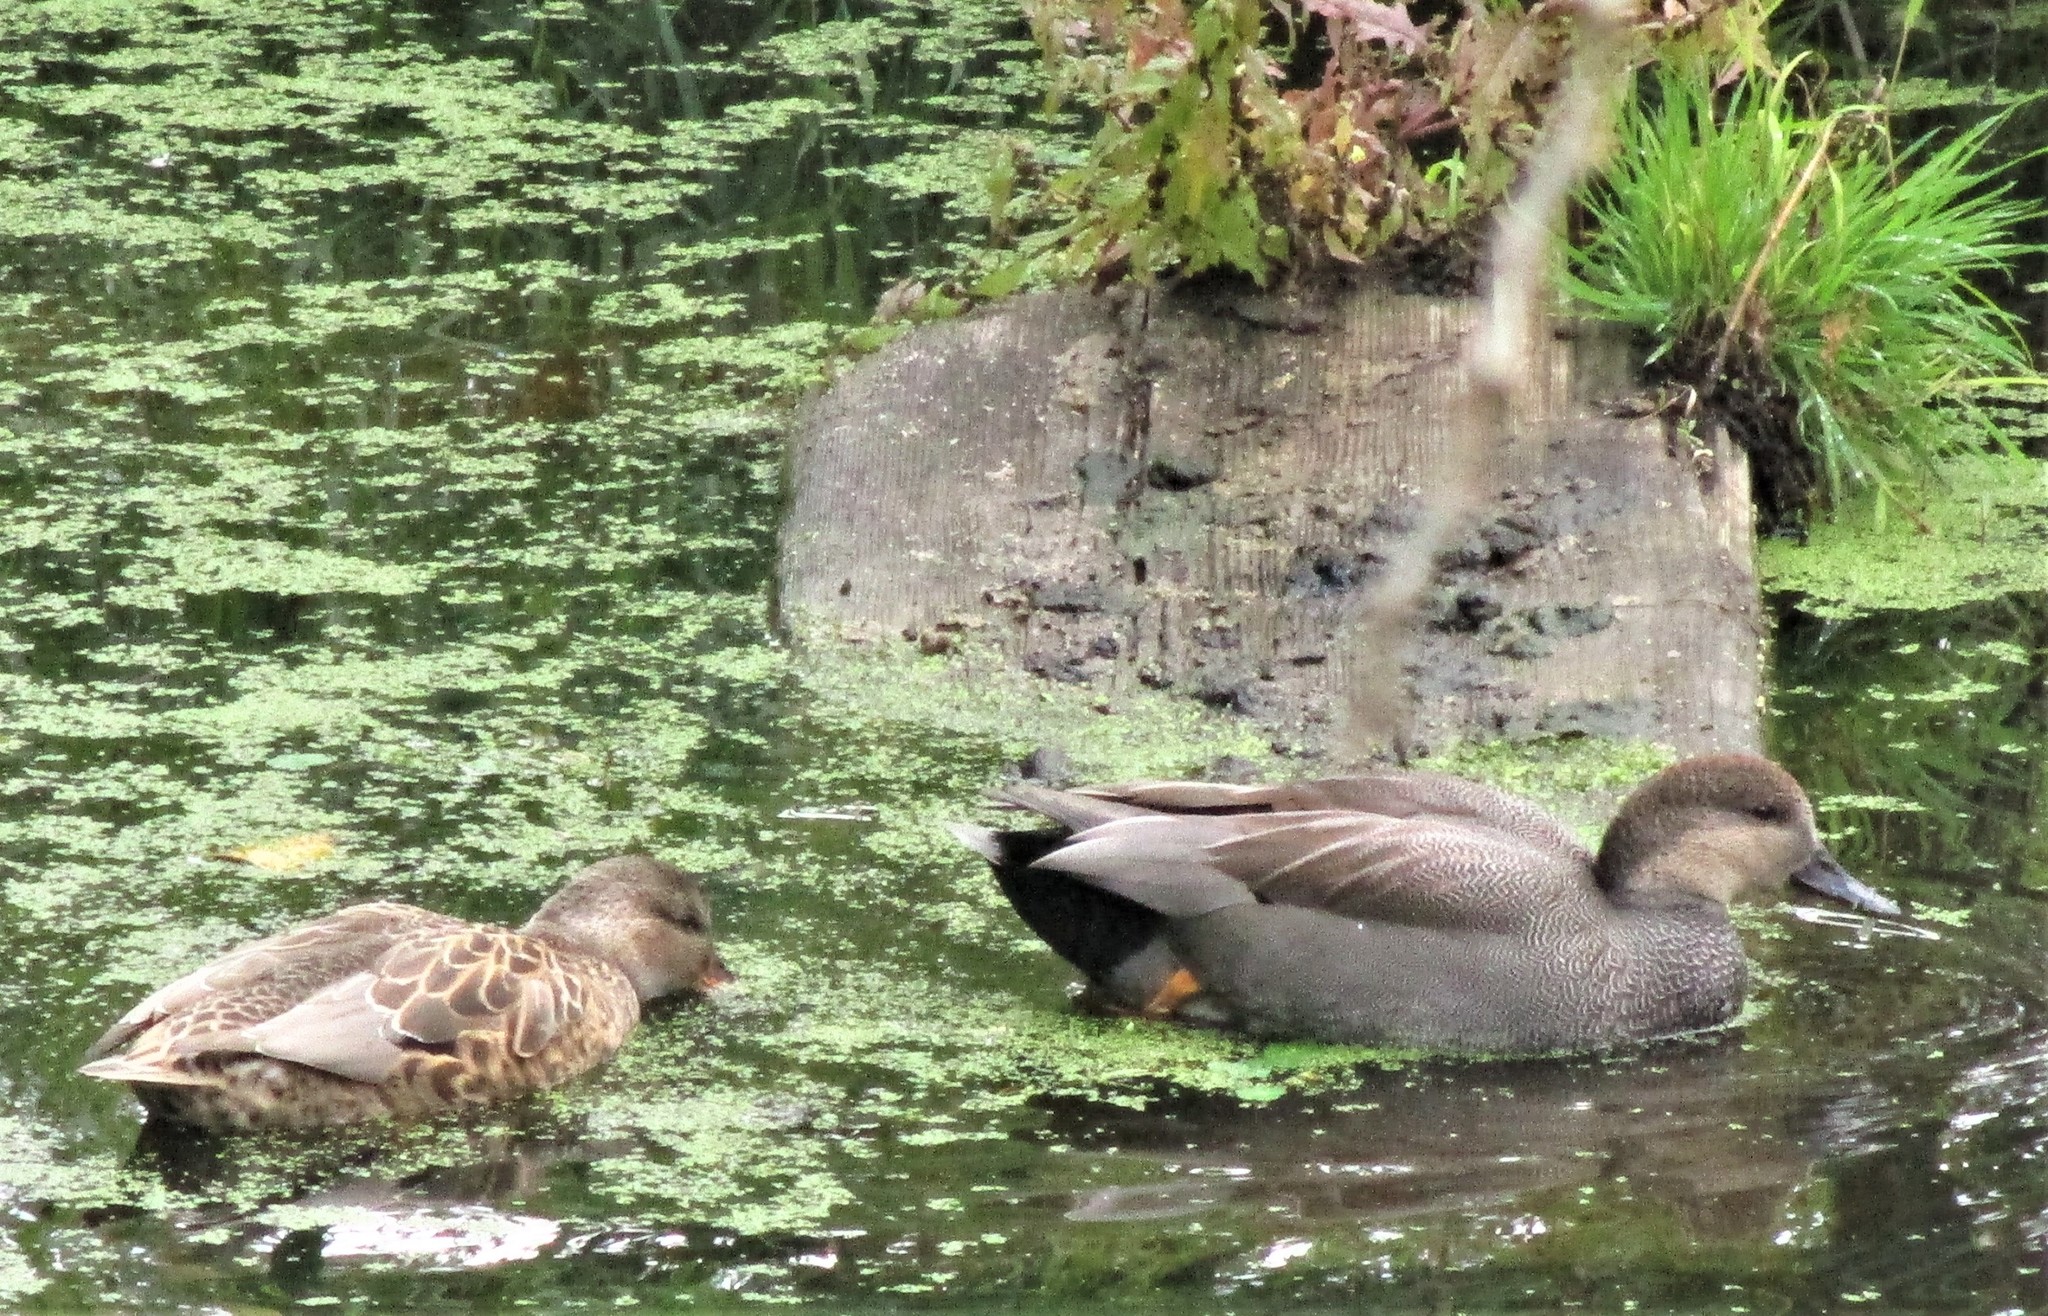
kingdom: Animalia
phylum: Chordata
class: Aves
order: Anseriformes
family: Anatidae
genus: Mareca
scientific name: Mareca strepera
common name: Gadwall
